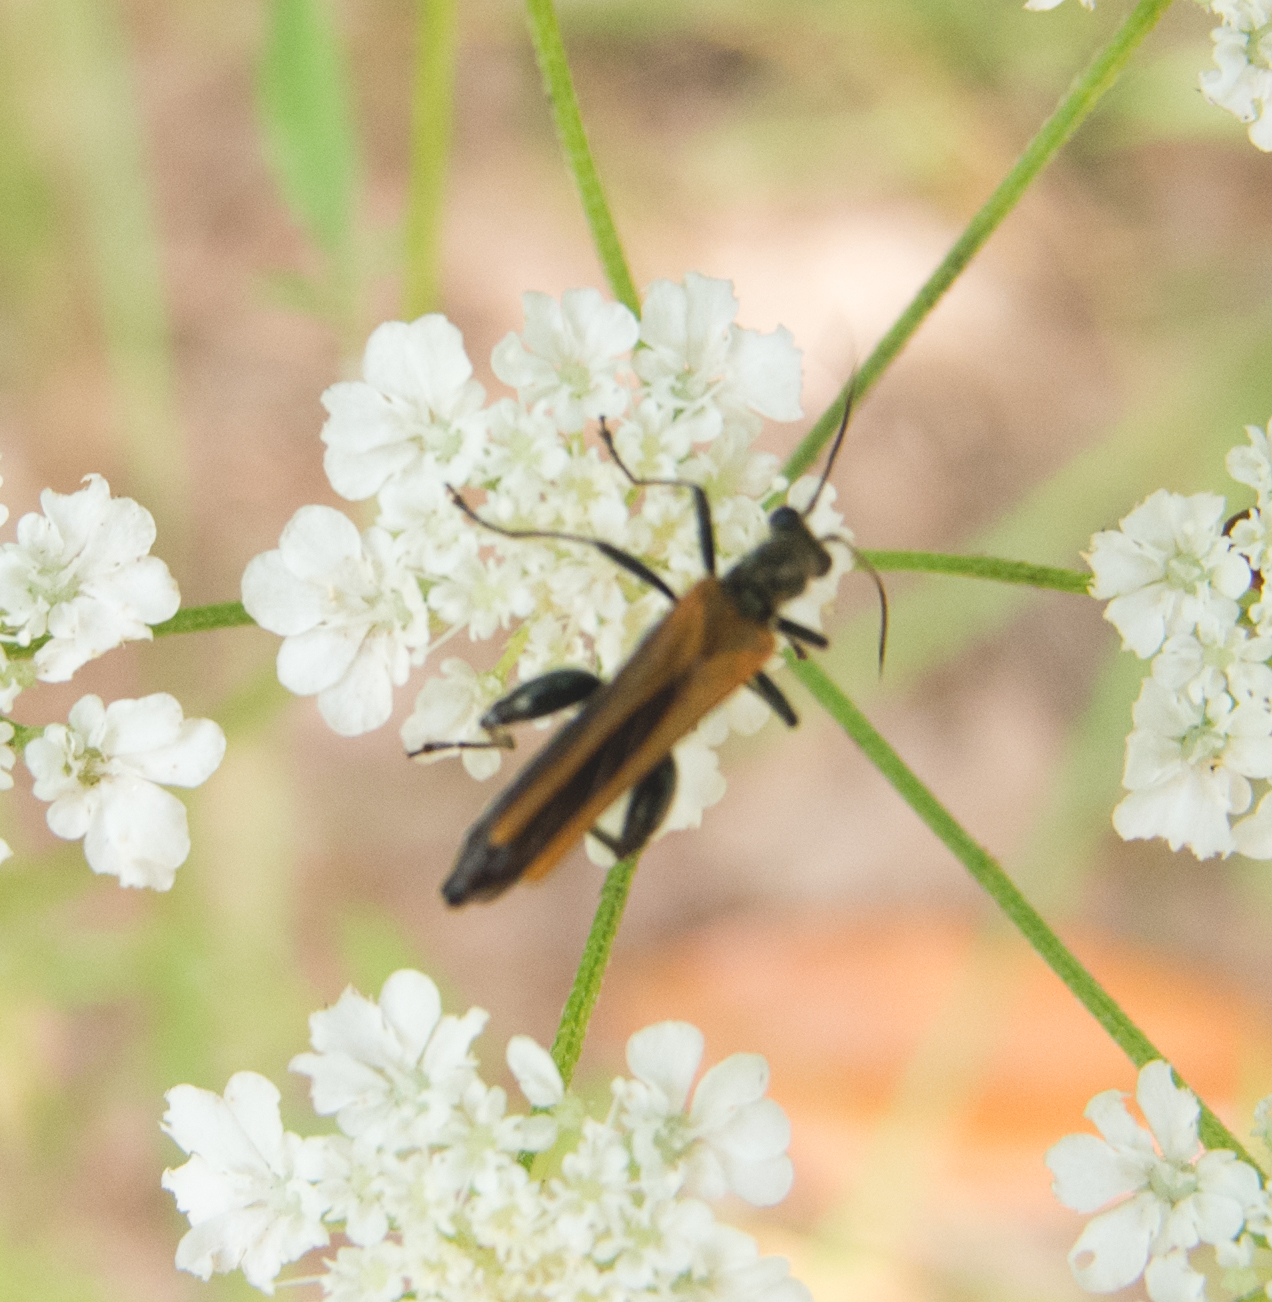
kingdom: Animalia
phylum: Arthropoda
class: Insecta
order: Coleoptera
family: Oedemeridae
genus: Oedemera
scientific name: Oedemera femorata
